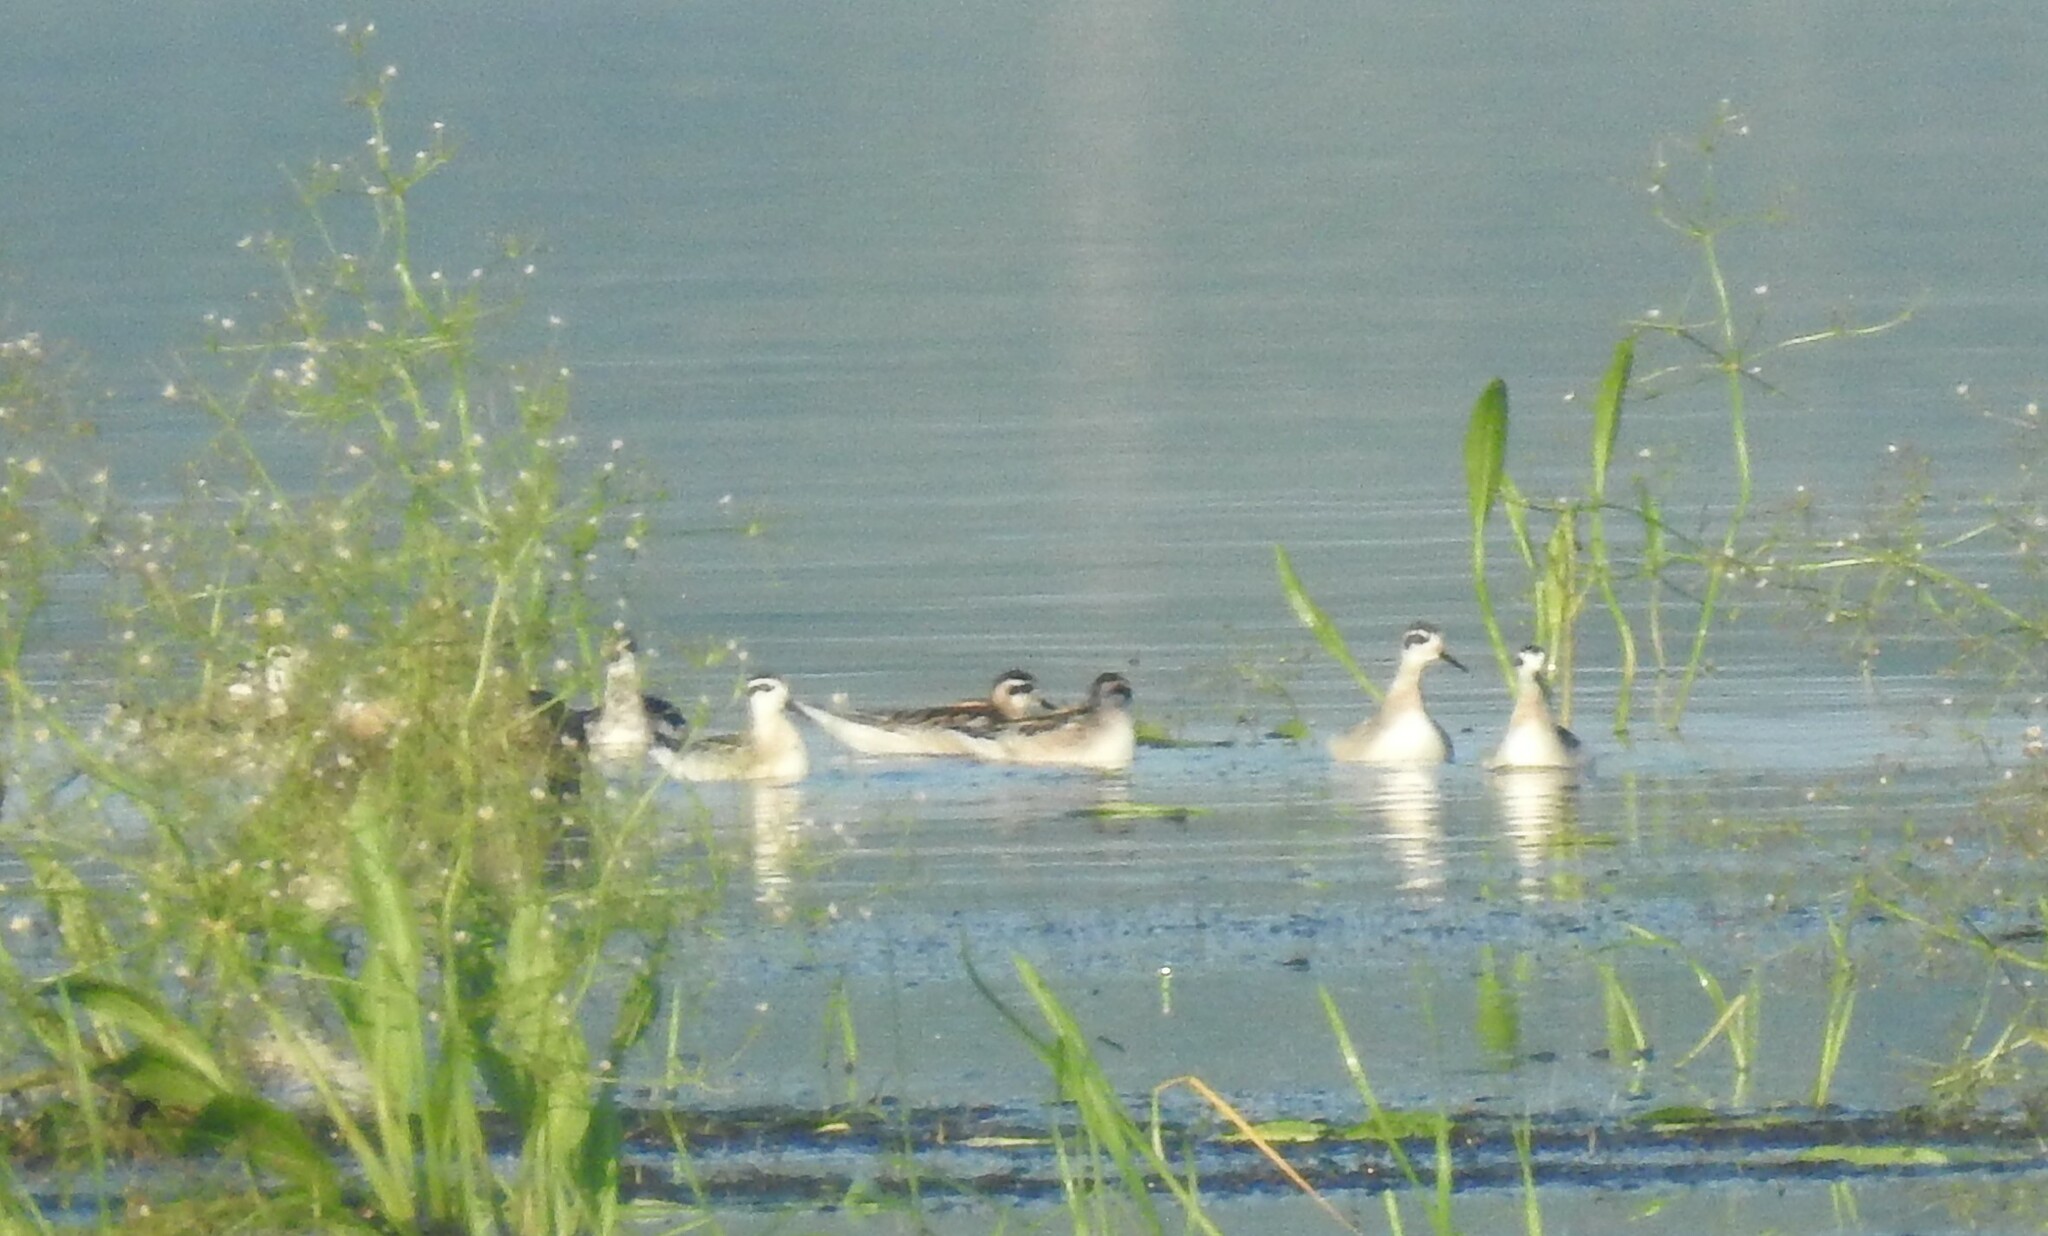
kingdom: Animalia
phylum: Chordata
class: Aves
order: Charadriiformes
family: Scolopacidae
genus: Phalaropus
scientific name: Phalaropus lobatus
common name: Red-necked phalarope
